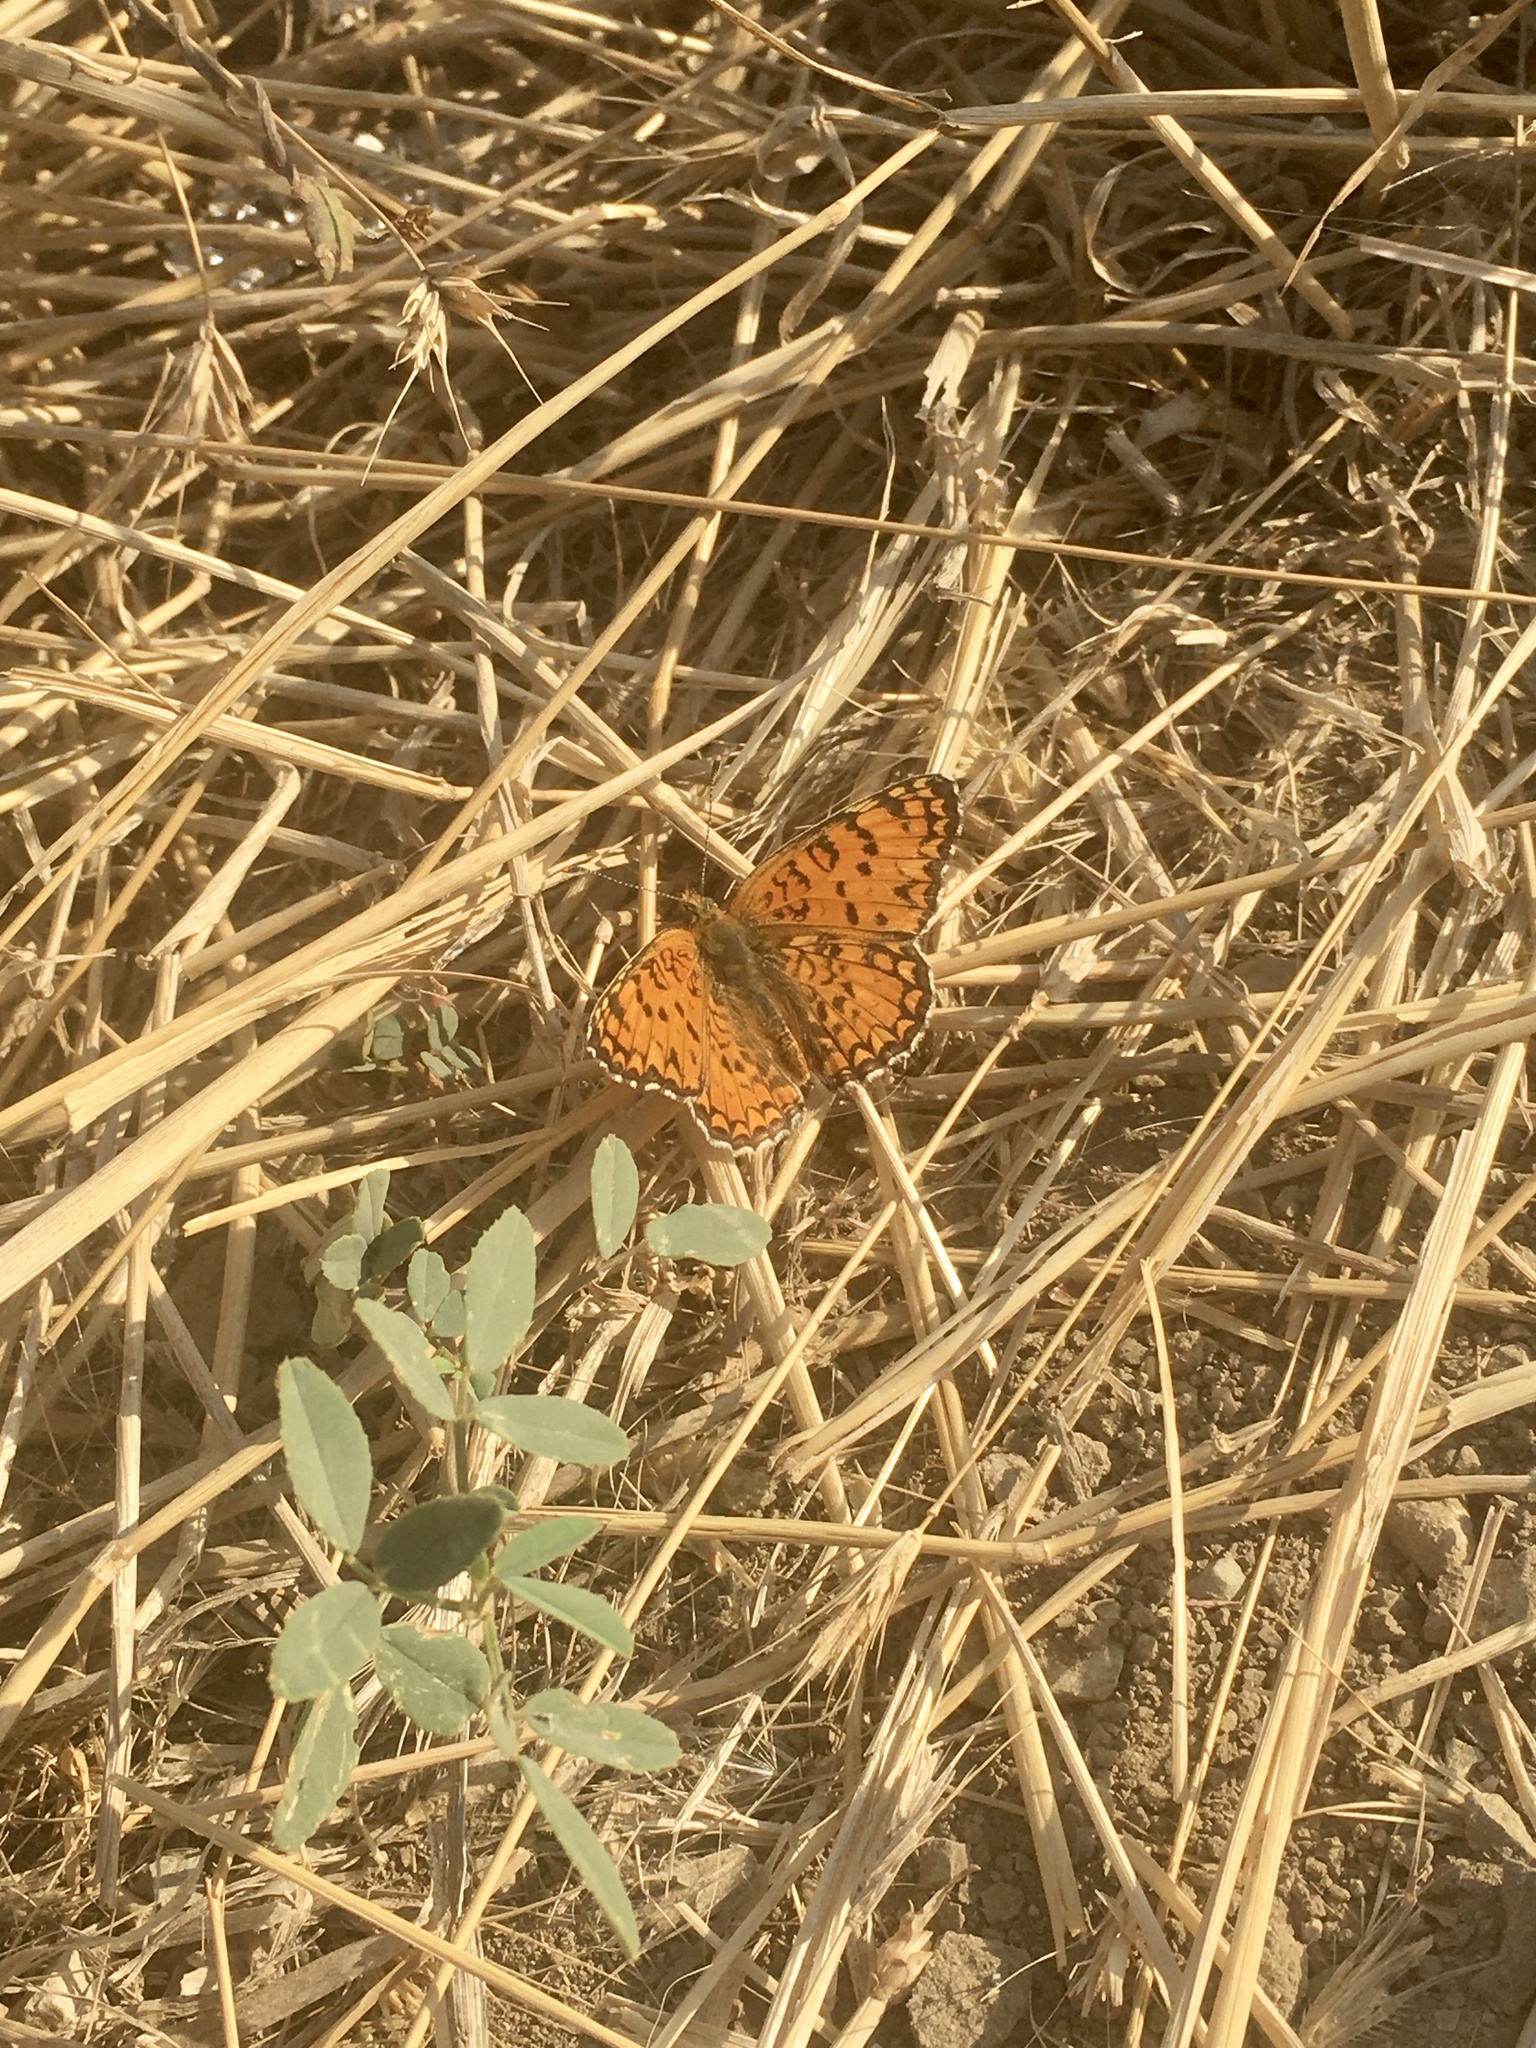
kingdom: Animalia
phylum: Arthropoda
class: Insecta
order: Lepidoptera
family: Nymphalidae
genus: Melitaea
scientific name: Melitaea phoebe
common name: Knapweed fritillary
